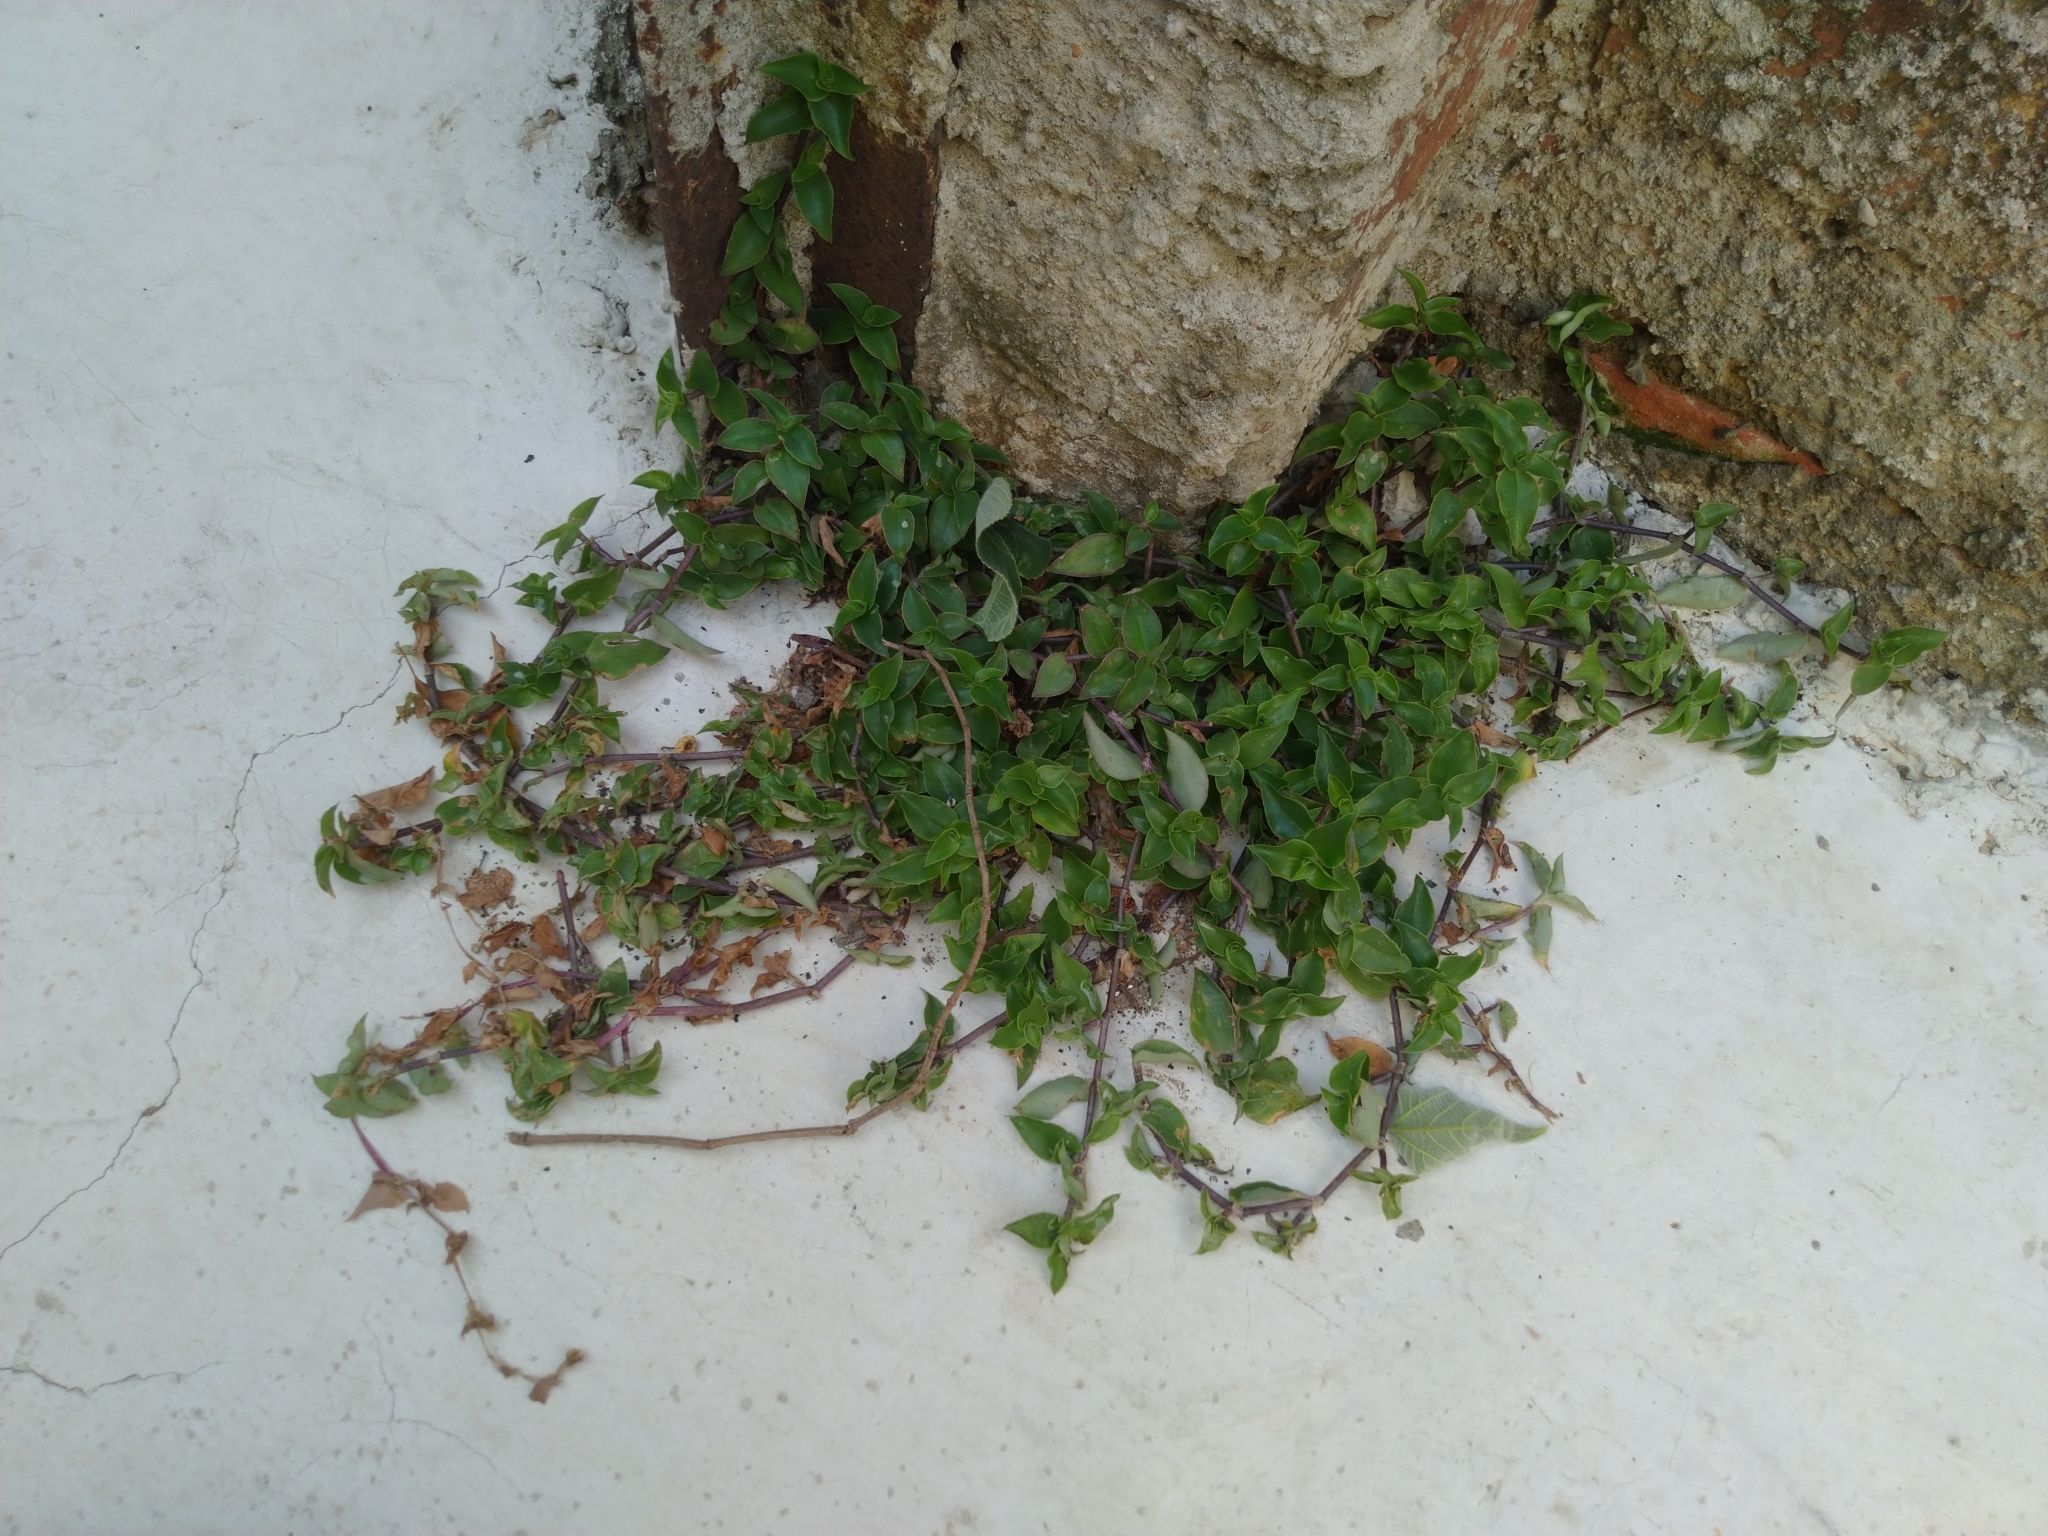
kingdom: Plantae
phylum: Tracheophyta
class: Liliopsida
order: Commelinales
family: Commelinaceae
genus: Callisia
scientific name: Callisia repens
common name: Creeping inchplant
